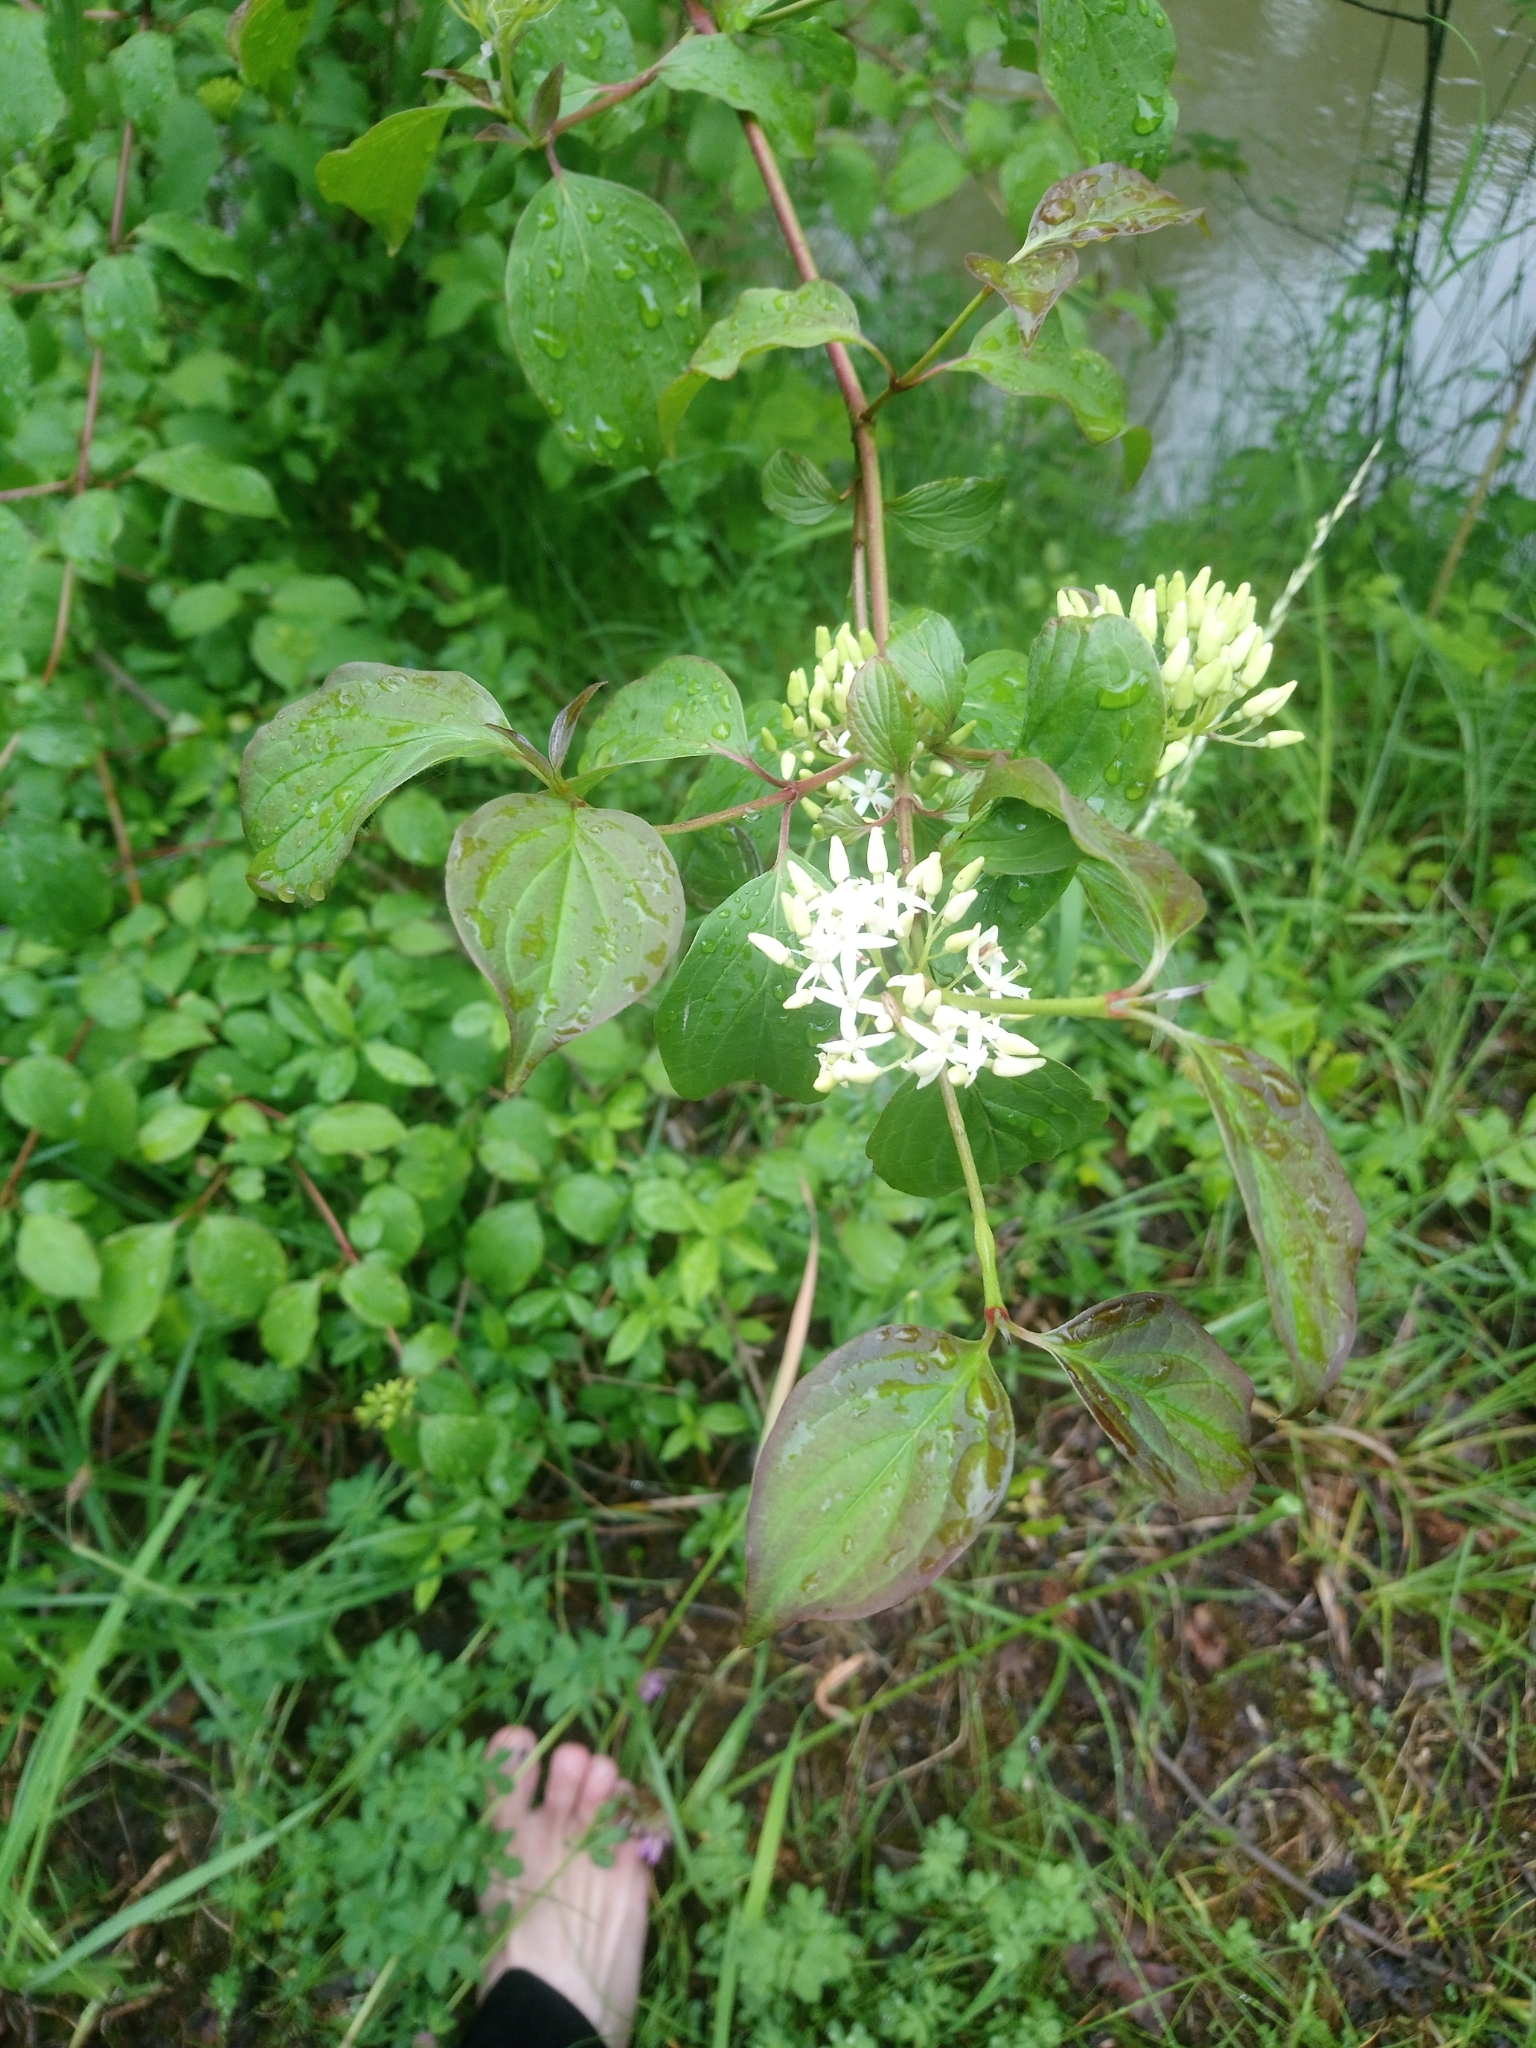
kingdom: Plantae
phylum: Tracheophyta
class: Magnoliopsida
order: Cornales
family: Cornaceae
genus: Cornus
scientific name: Cornus sanguinea
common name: Dogwood
